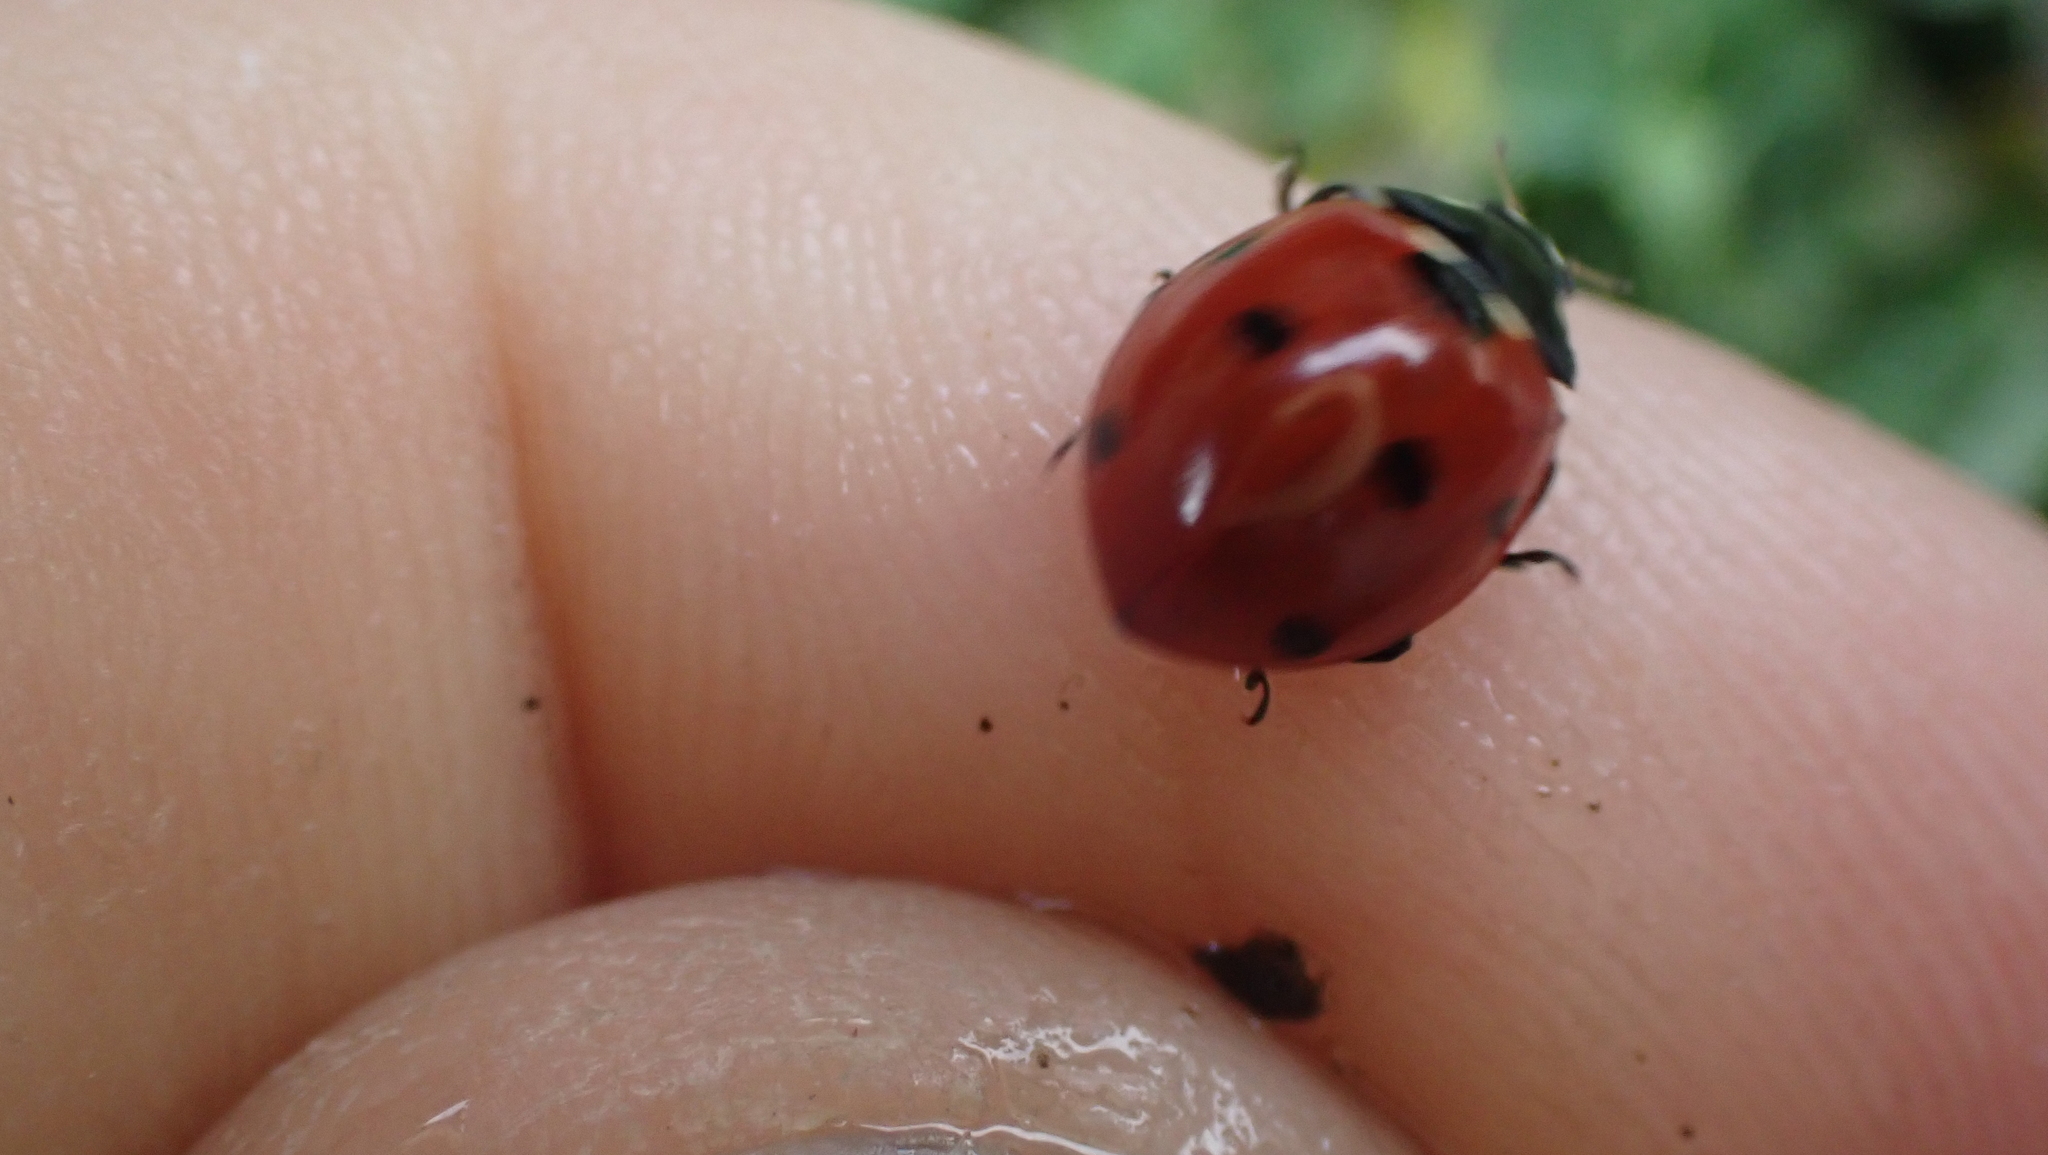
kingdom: Animalia
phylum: Arthropoda
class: Insecta
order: Coleoptera
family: Coccinellidae
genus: Coccinella
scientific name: Coccinella septempunctata
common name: Sevenspotted lady beetle
